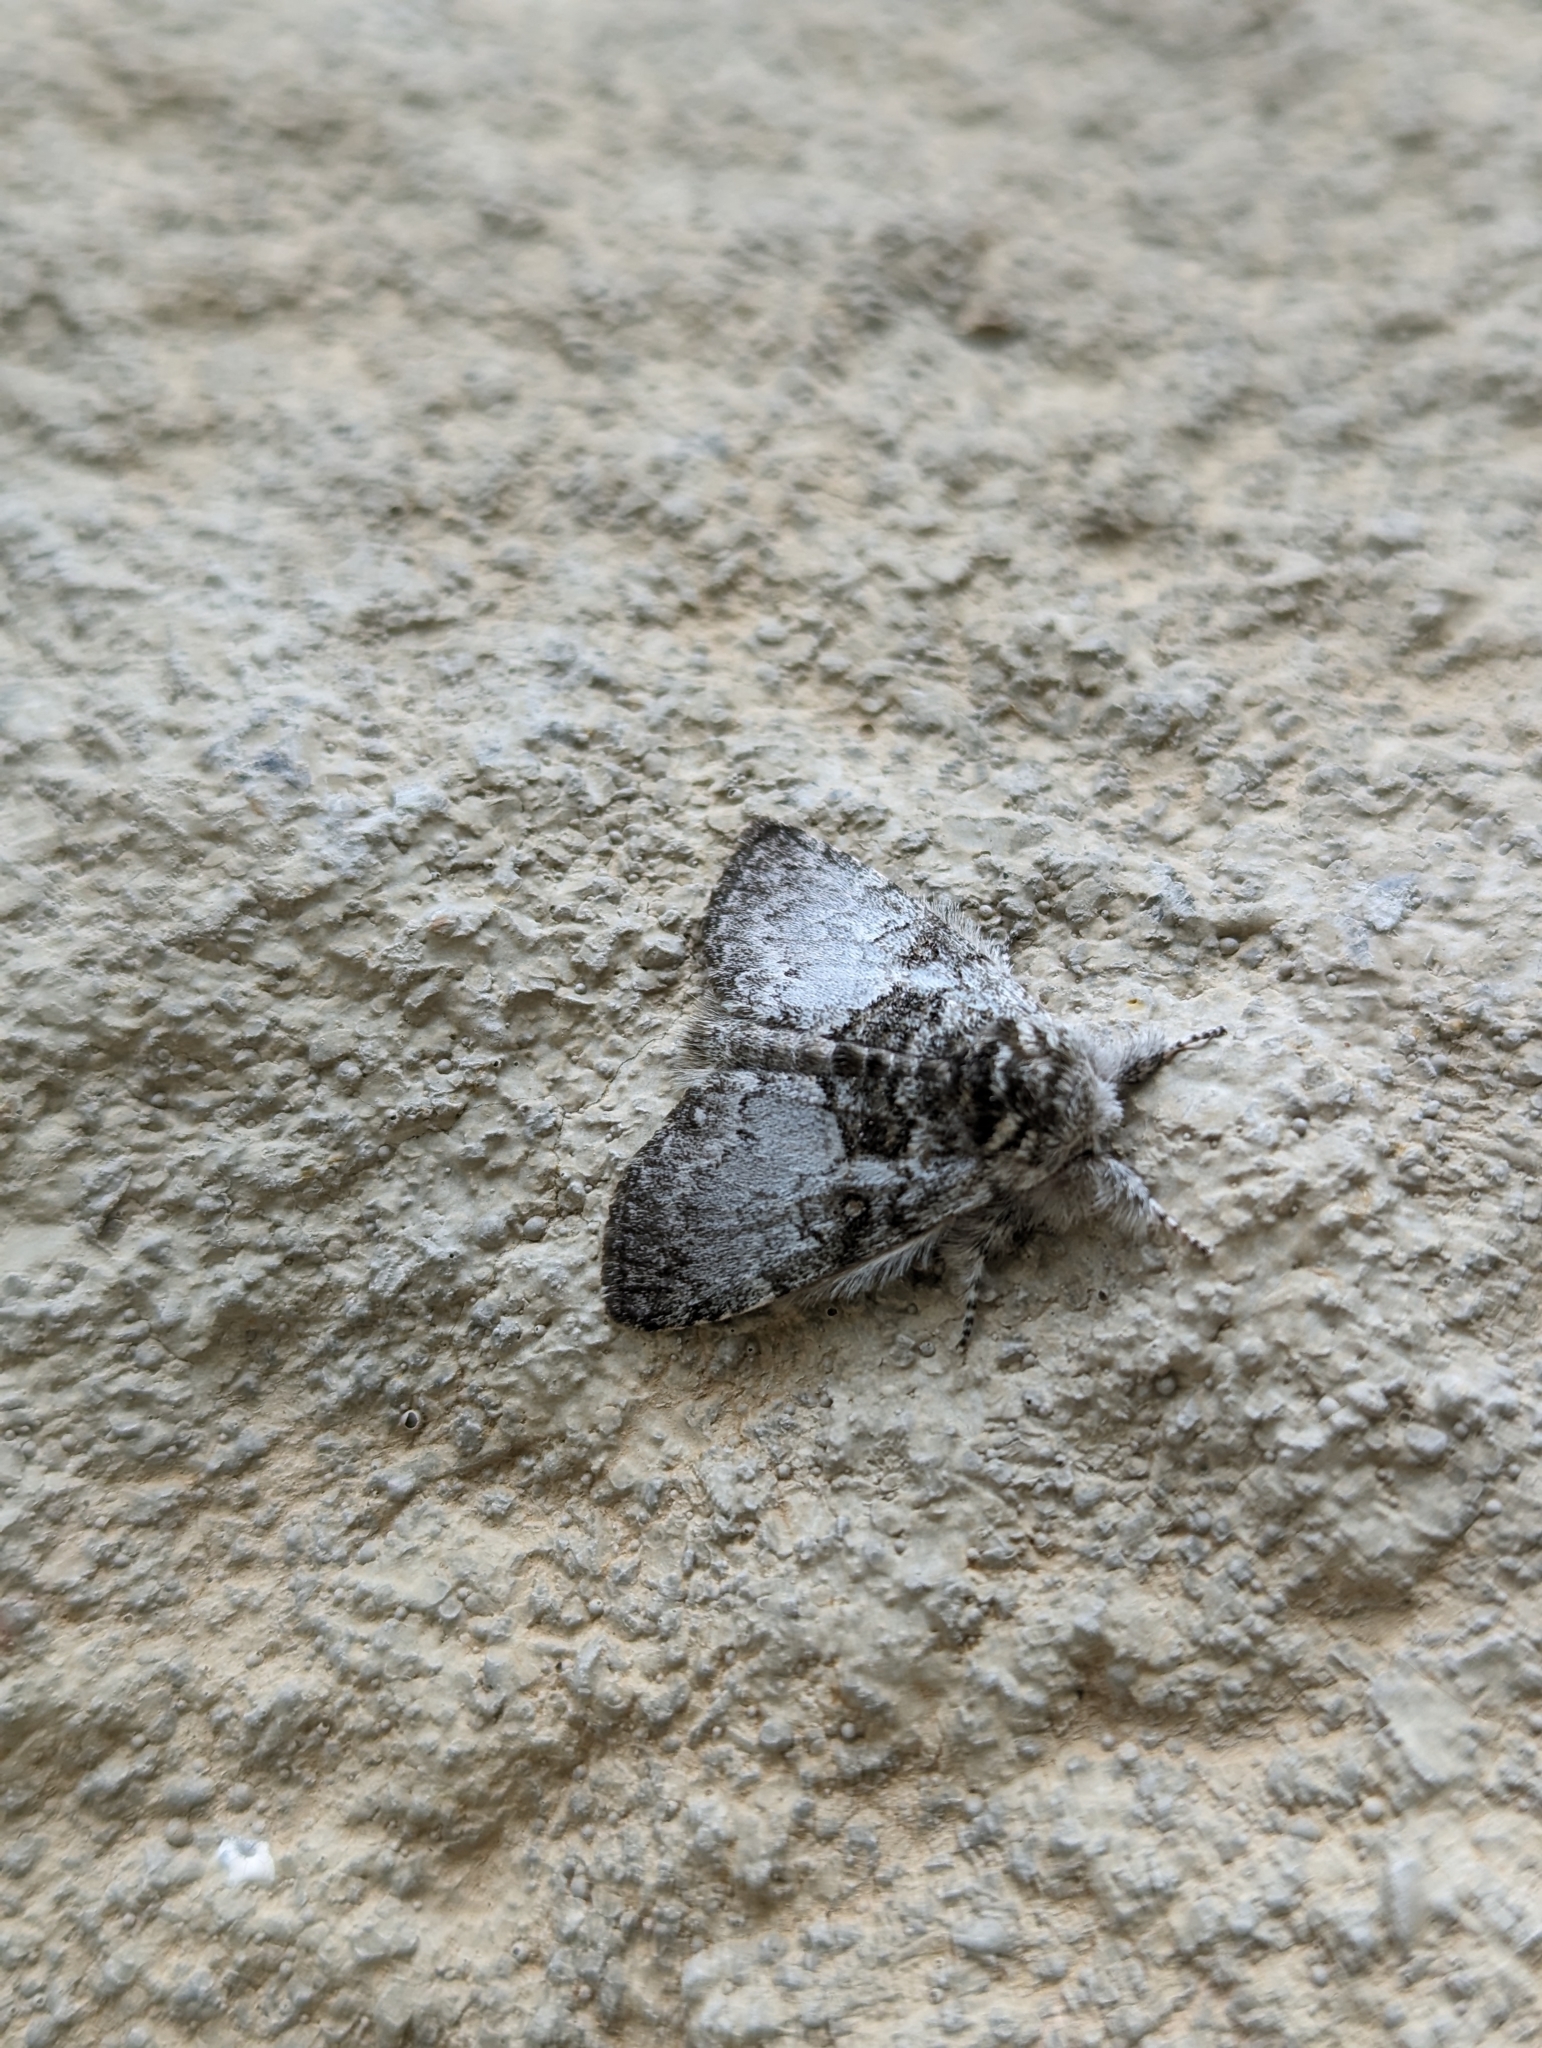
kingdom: Animalia
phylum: Arthropoda
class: Insecta
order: Lepidoptera
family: Noctuidae
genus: Colocasia
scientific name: Colocasia flavicornis
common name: Saddled yellowhorn
